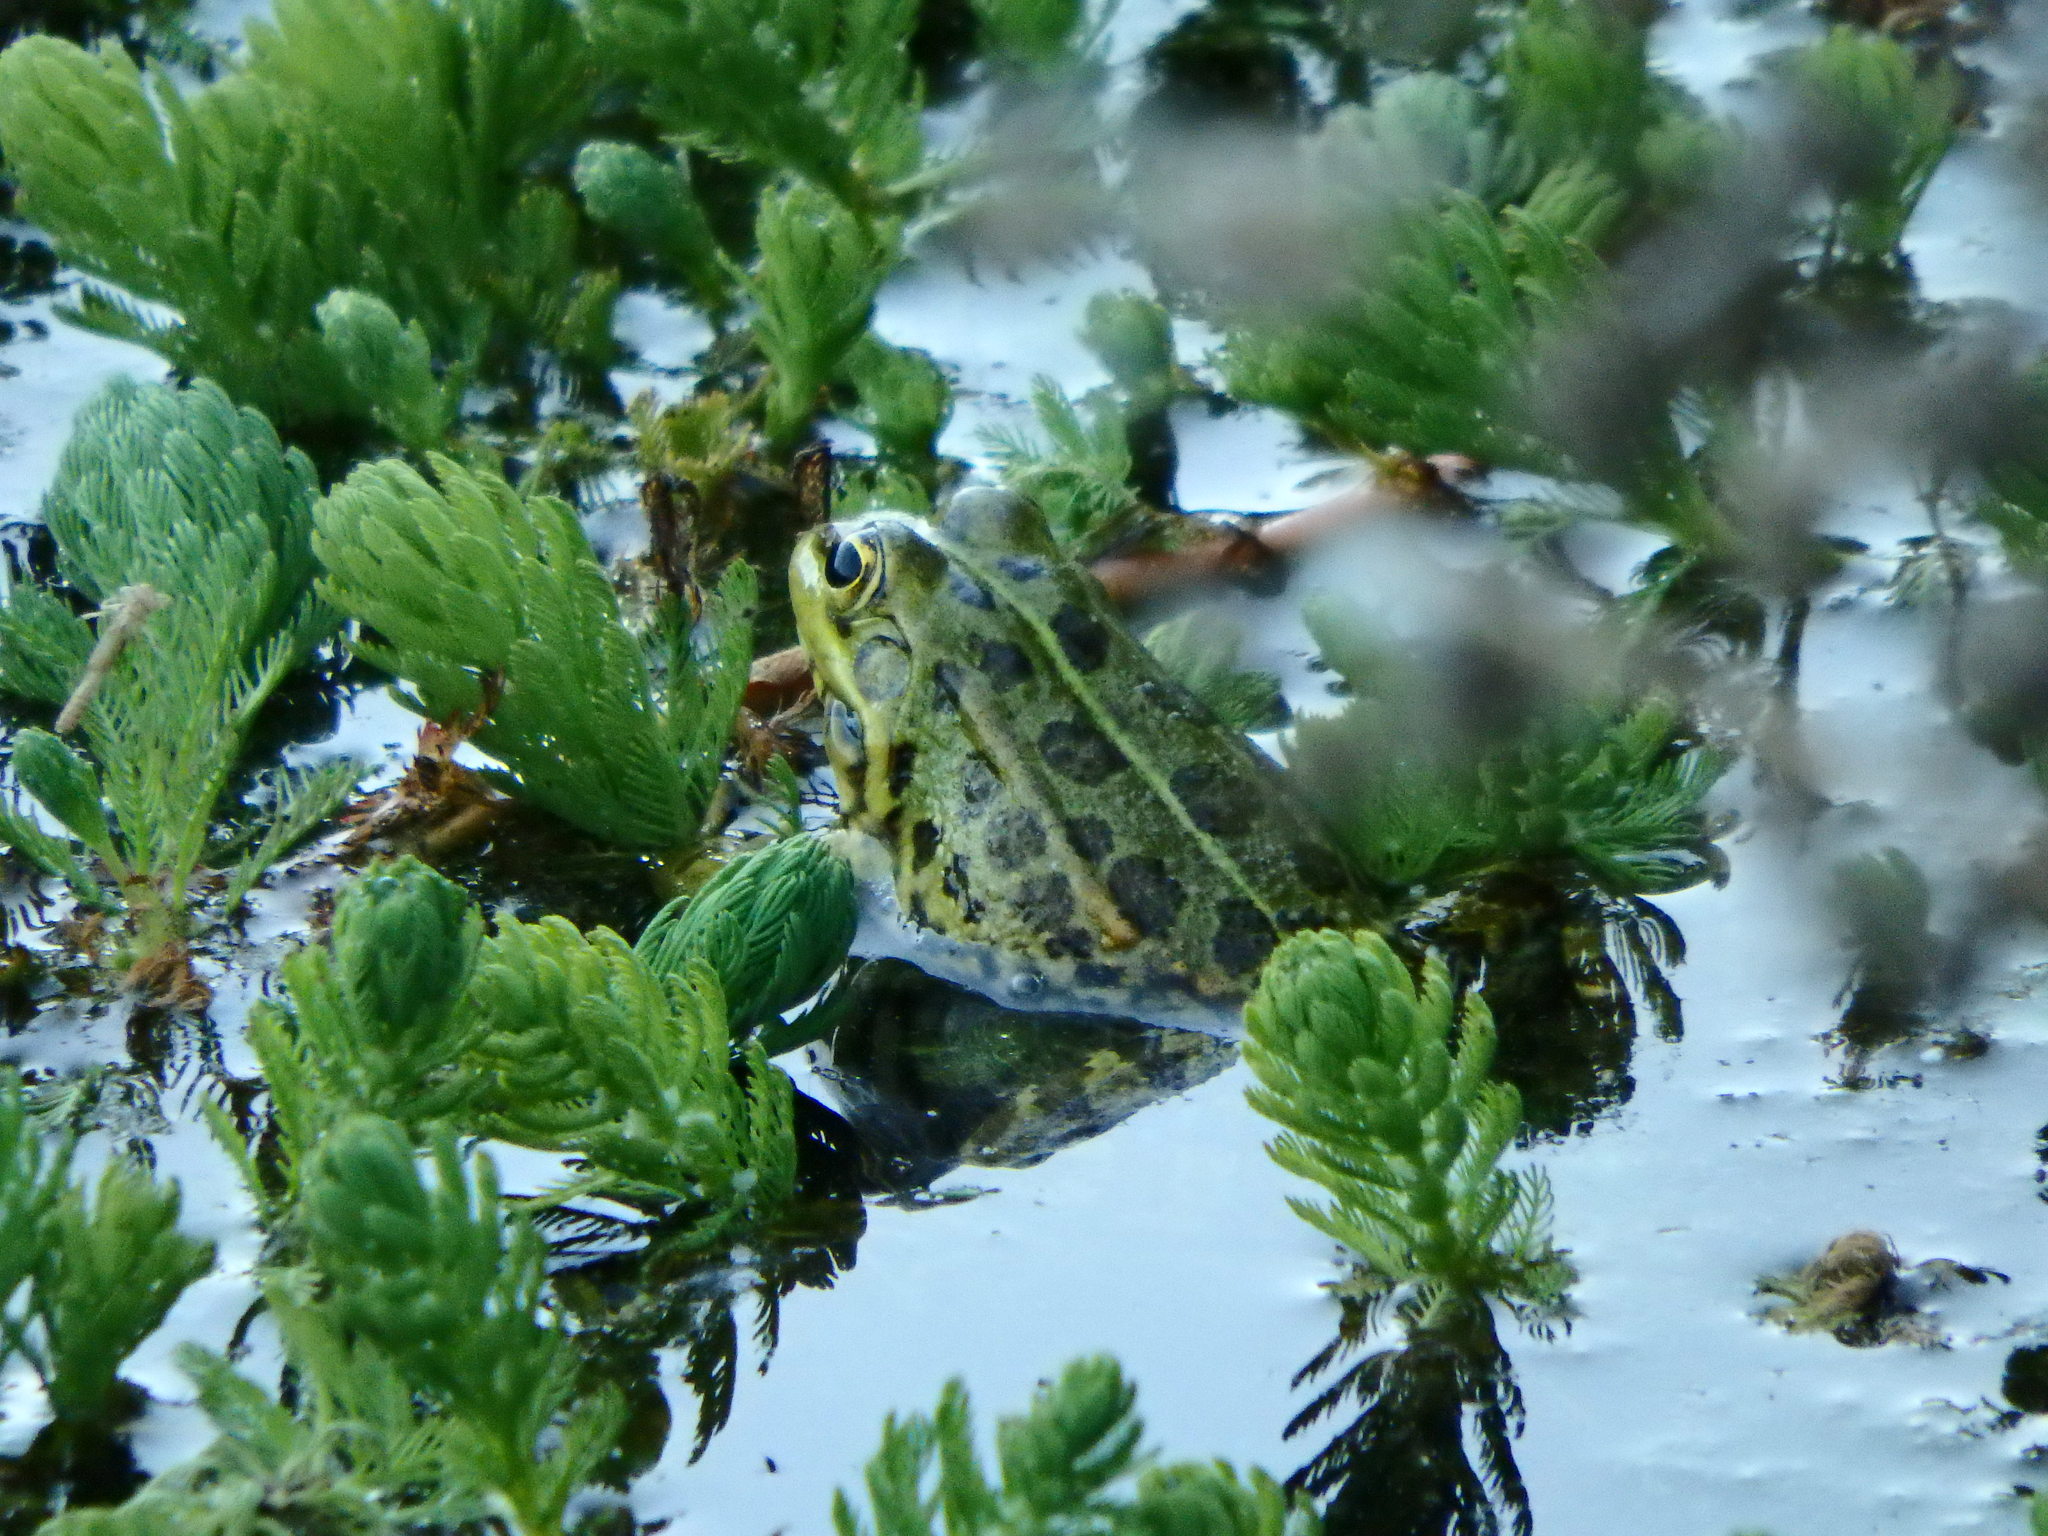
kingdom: Animalia
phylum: Chordata
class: Amphibia
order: Anura
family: Ranidae
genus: Pelophylax
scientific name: Pelophylax perezi
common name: Perez's frog
